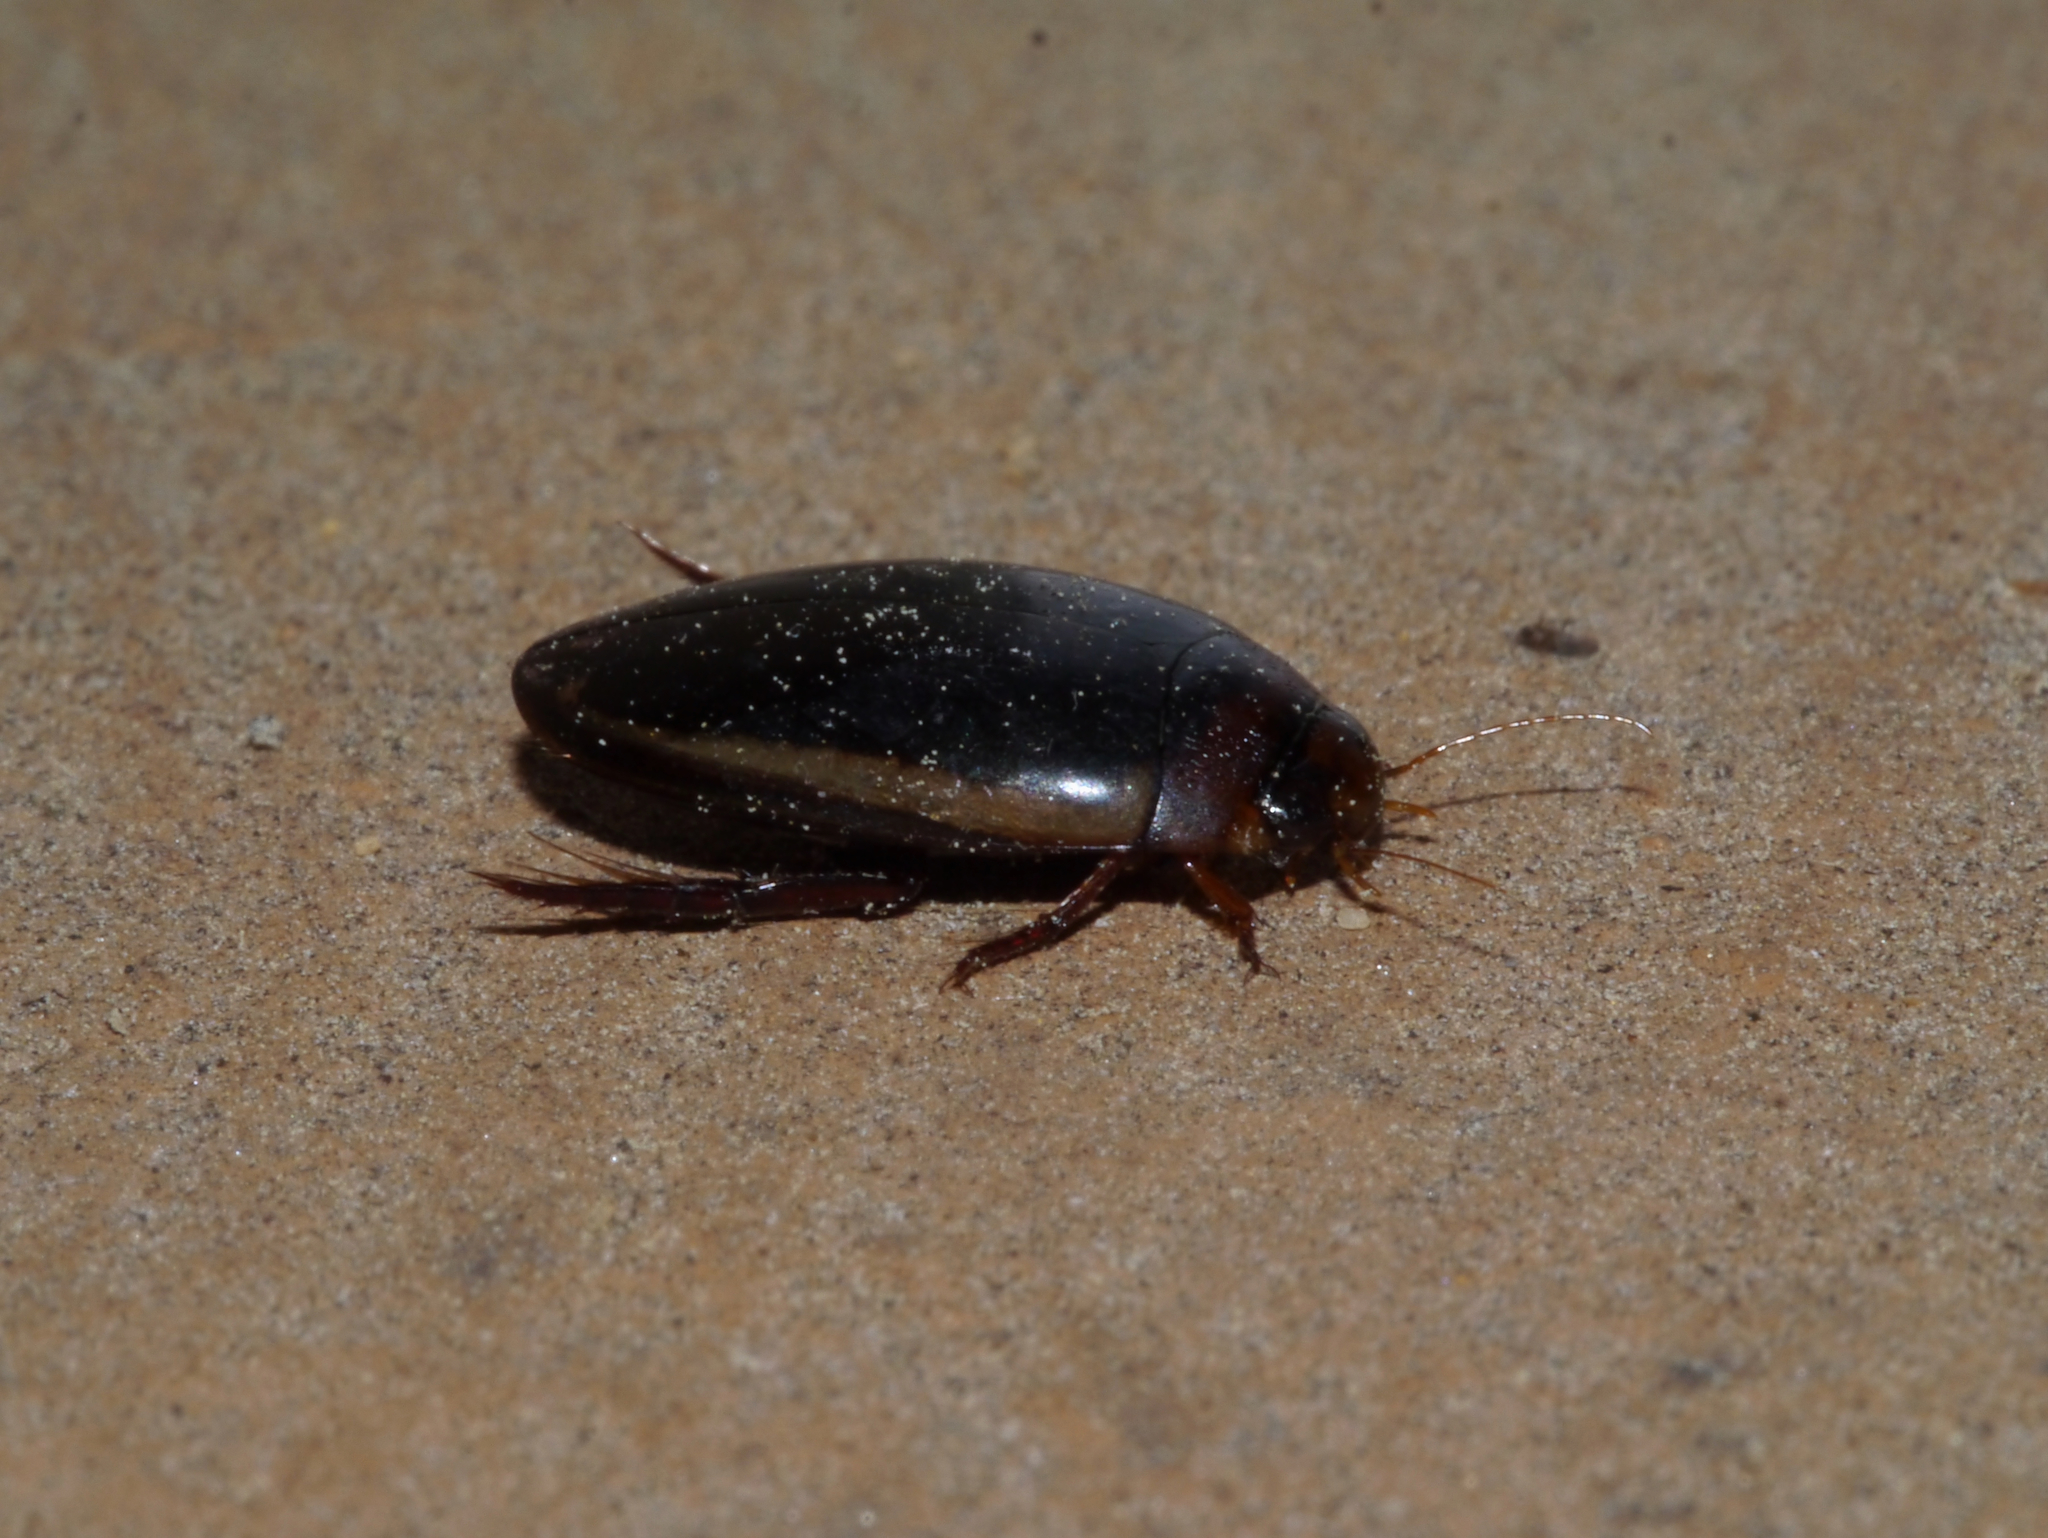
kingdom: Animalia
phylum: Arthropoda
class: Insecta
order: Coleoptera
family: Dytiscidae
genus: Hydaticus
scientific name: Hydaticus bimarginatus
